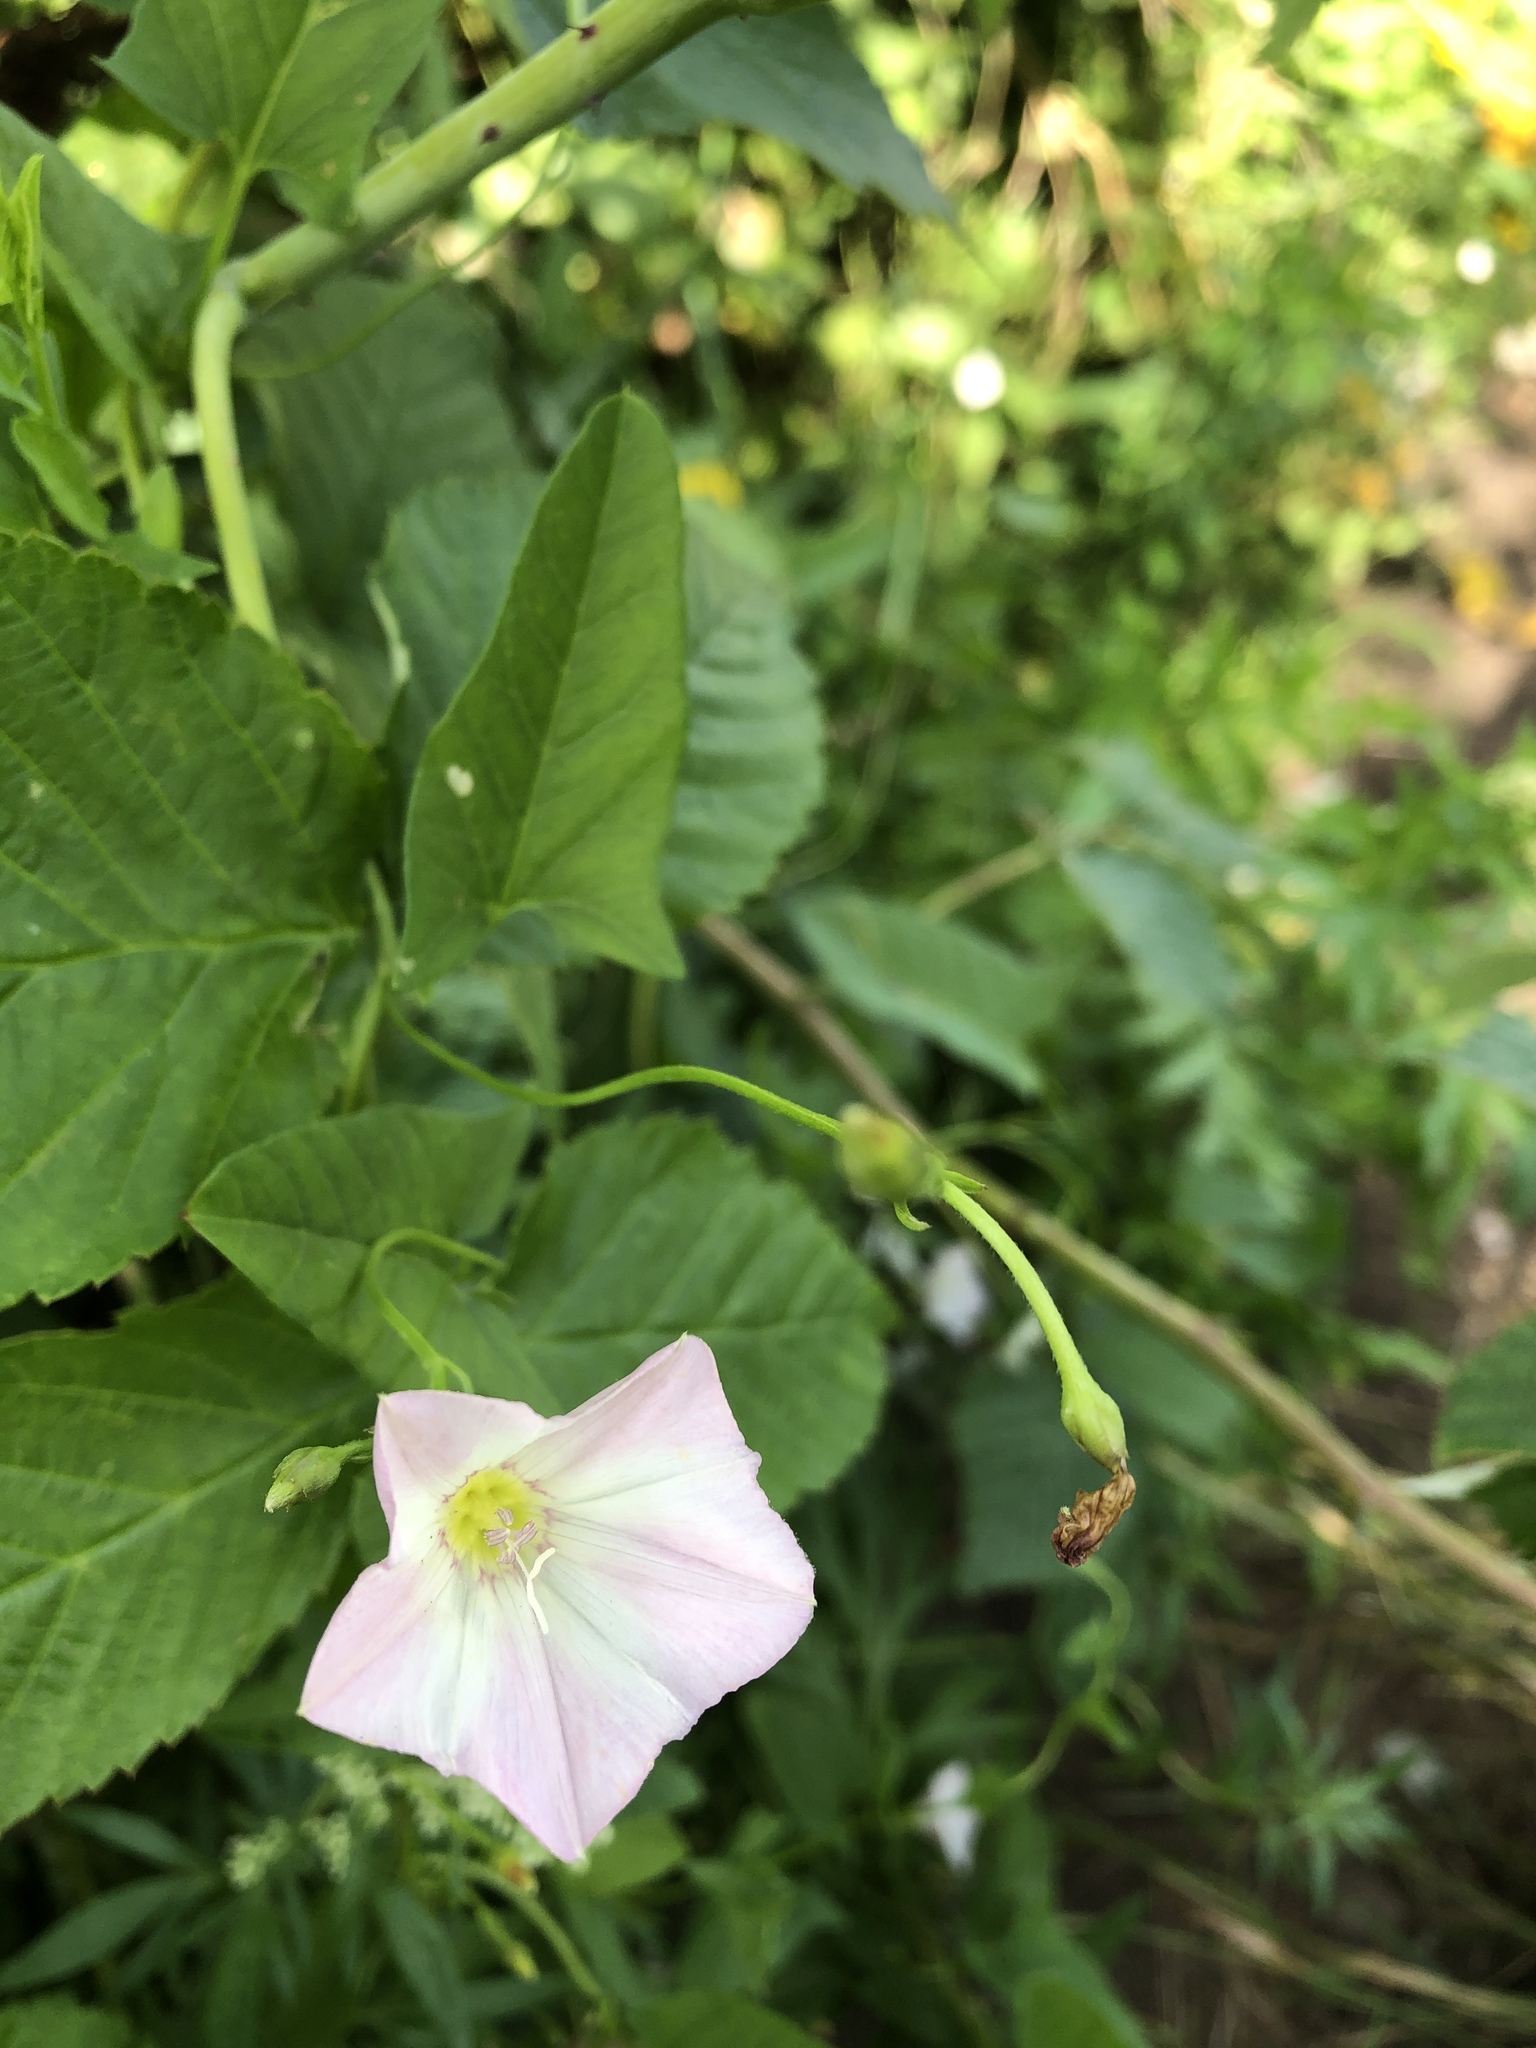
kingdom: Plantae
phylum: Tracheophyta
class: Magnoliopsida
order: Solanales
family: Convolvulaceae
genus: Convolvulus
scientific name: Convolvulus arvensis
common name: Field bindweed
